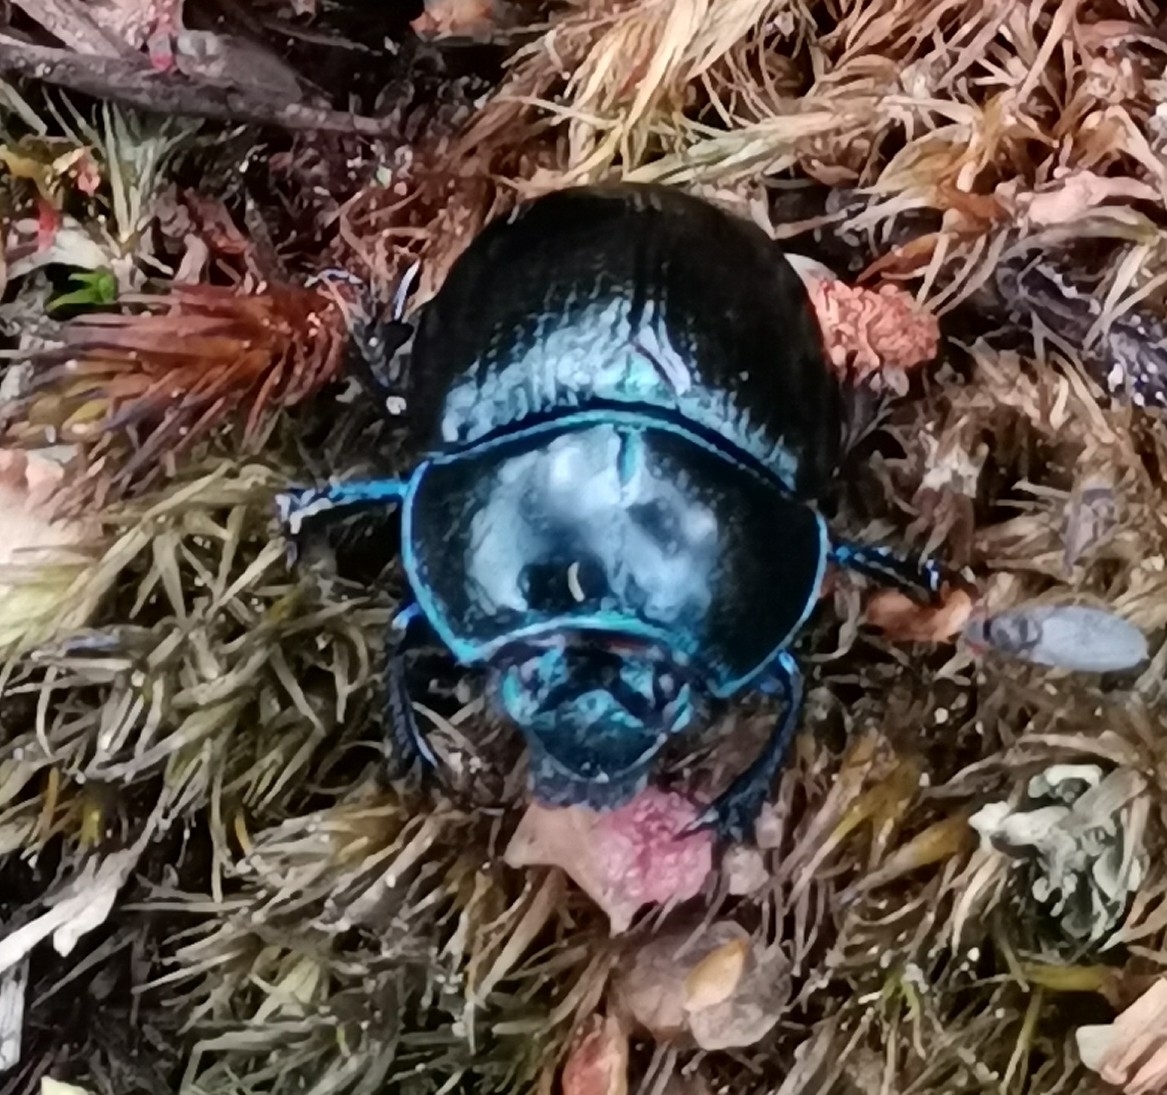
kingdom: Animalia
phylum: Arthropoda
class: Insecta
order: Coleoptera
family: Geotrupidae
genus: Anoplotrupes
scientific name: Anoplotrupes stercorosus
